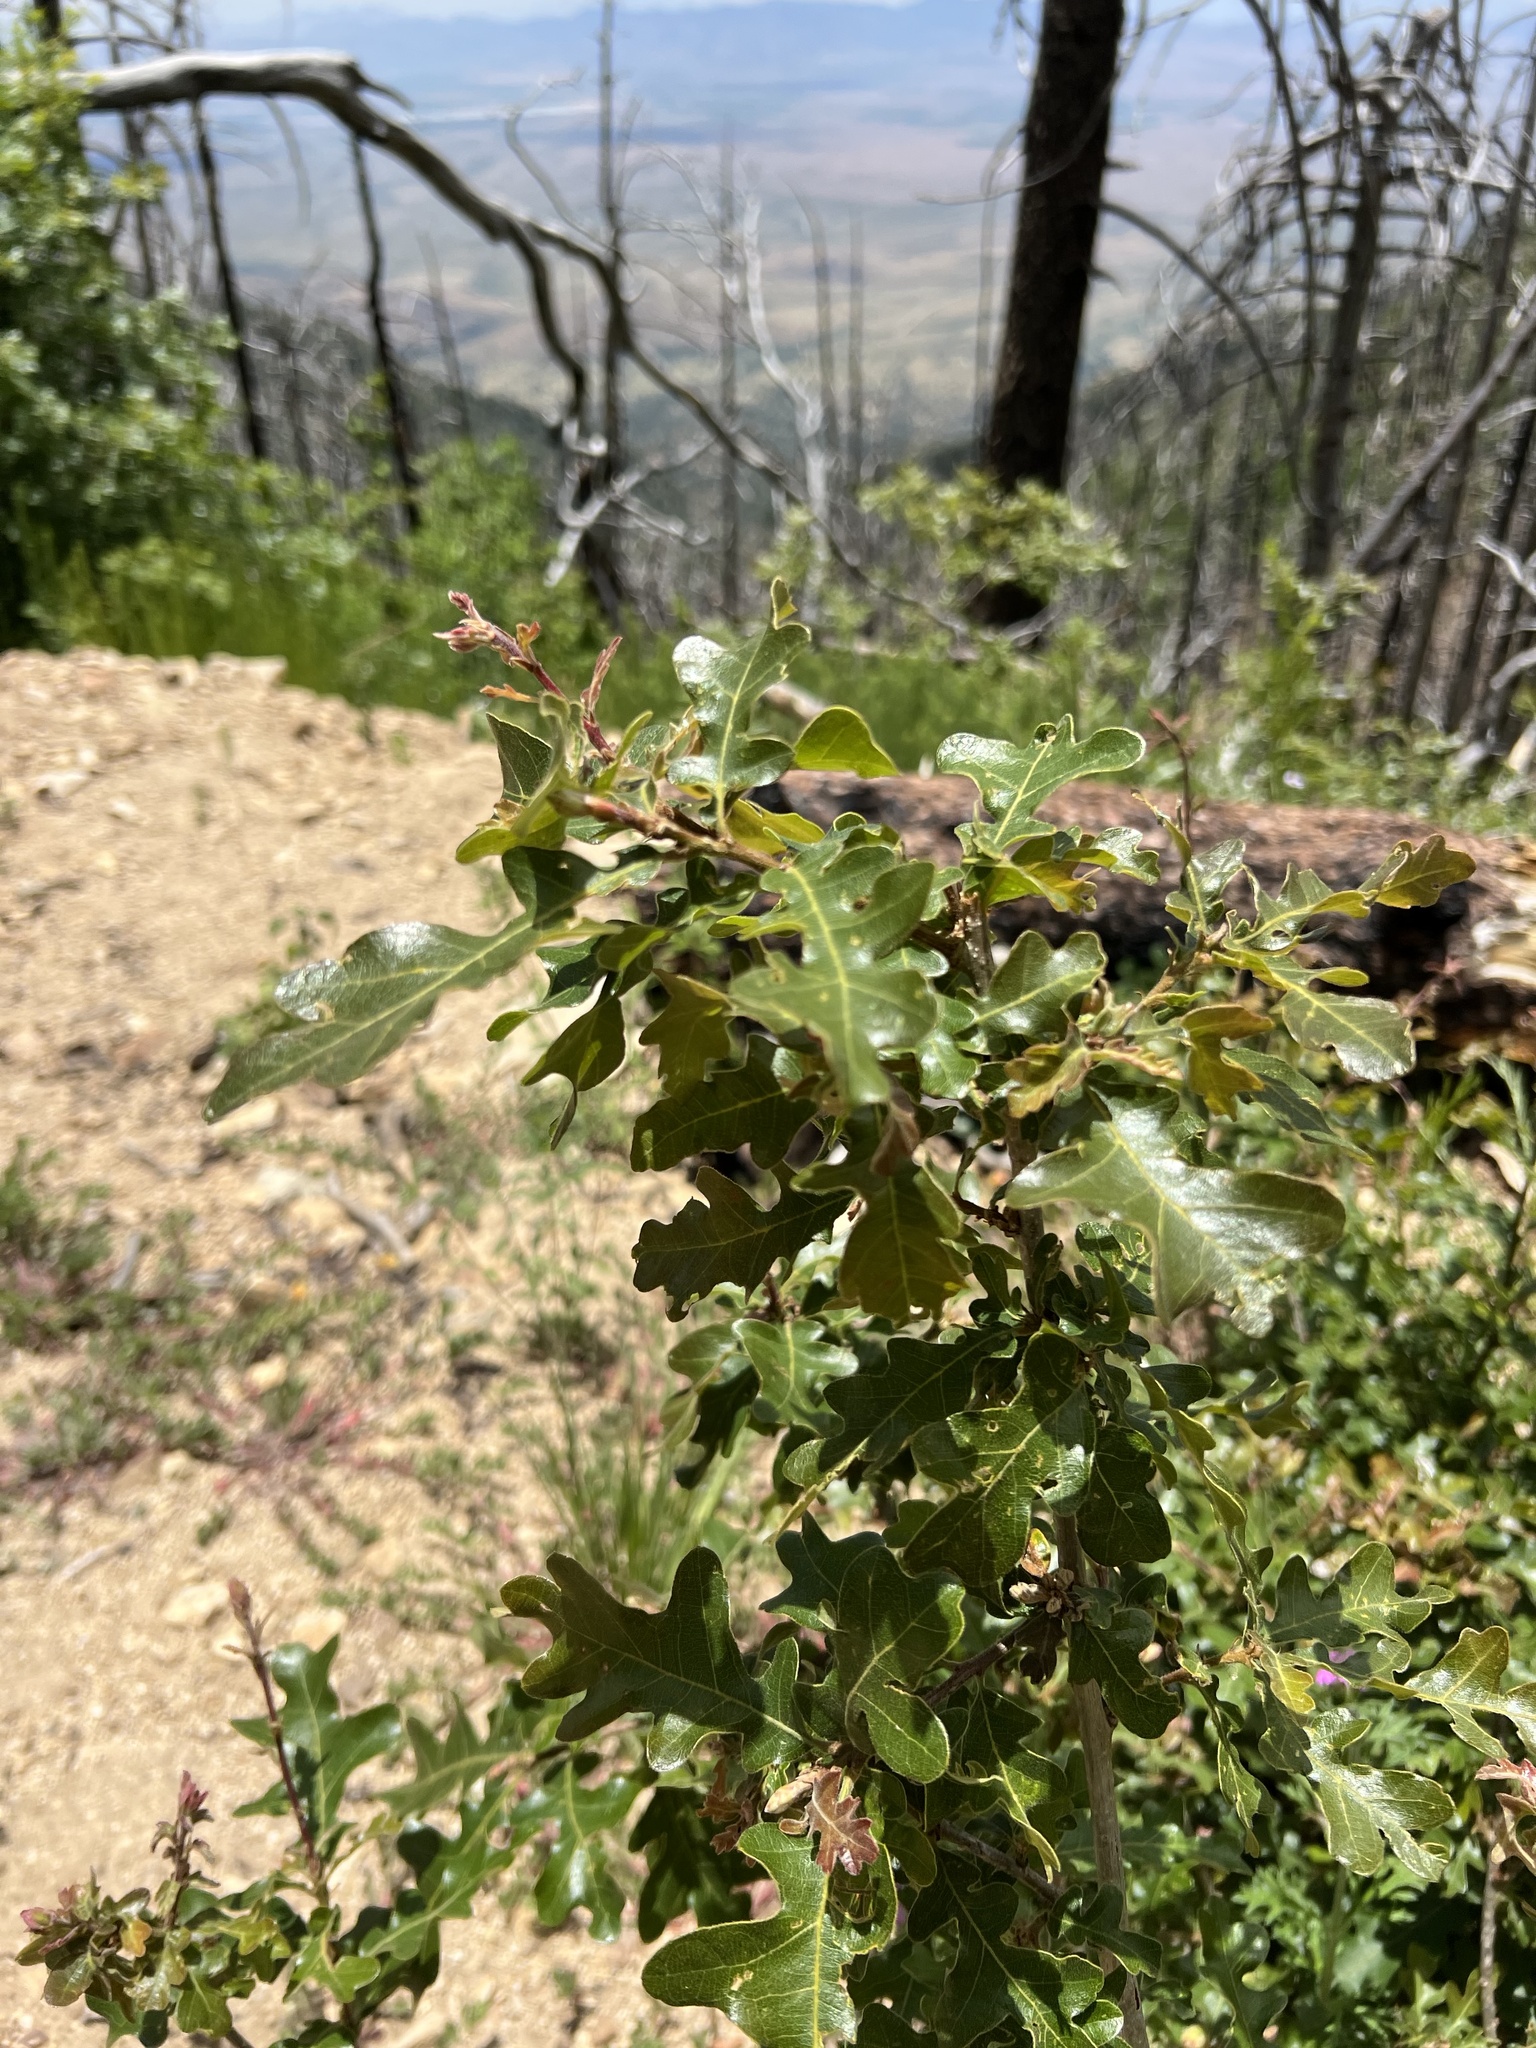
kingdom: Plantae
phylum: Tracheophyta
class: Magnoliopsida
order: Fagales
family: Fagaceae
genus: Quercus
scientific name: Quercus gambelii
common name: Gambel oak
